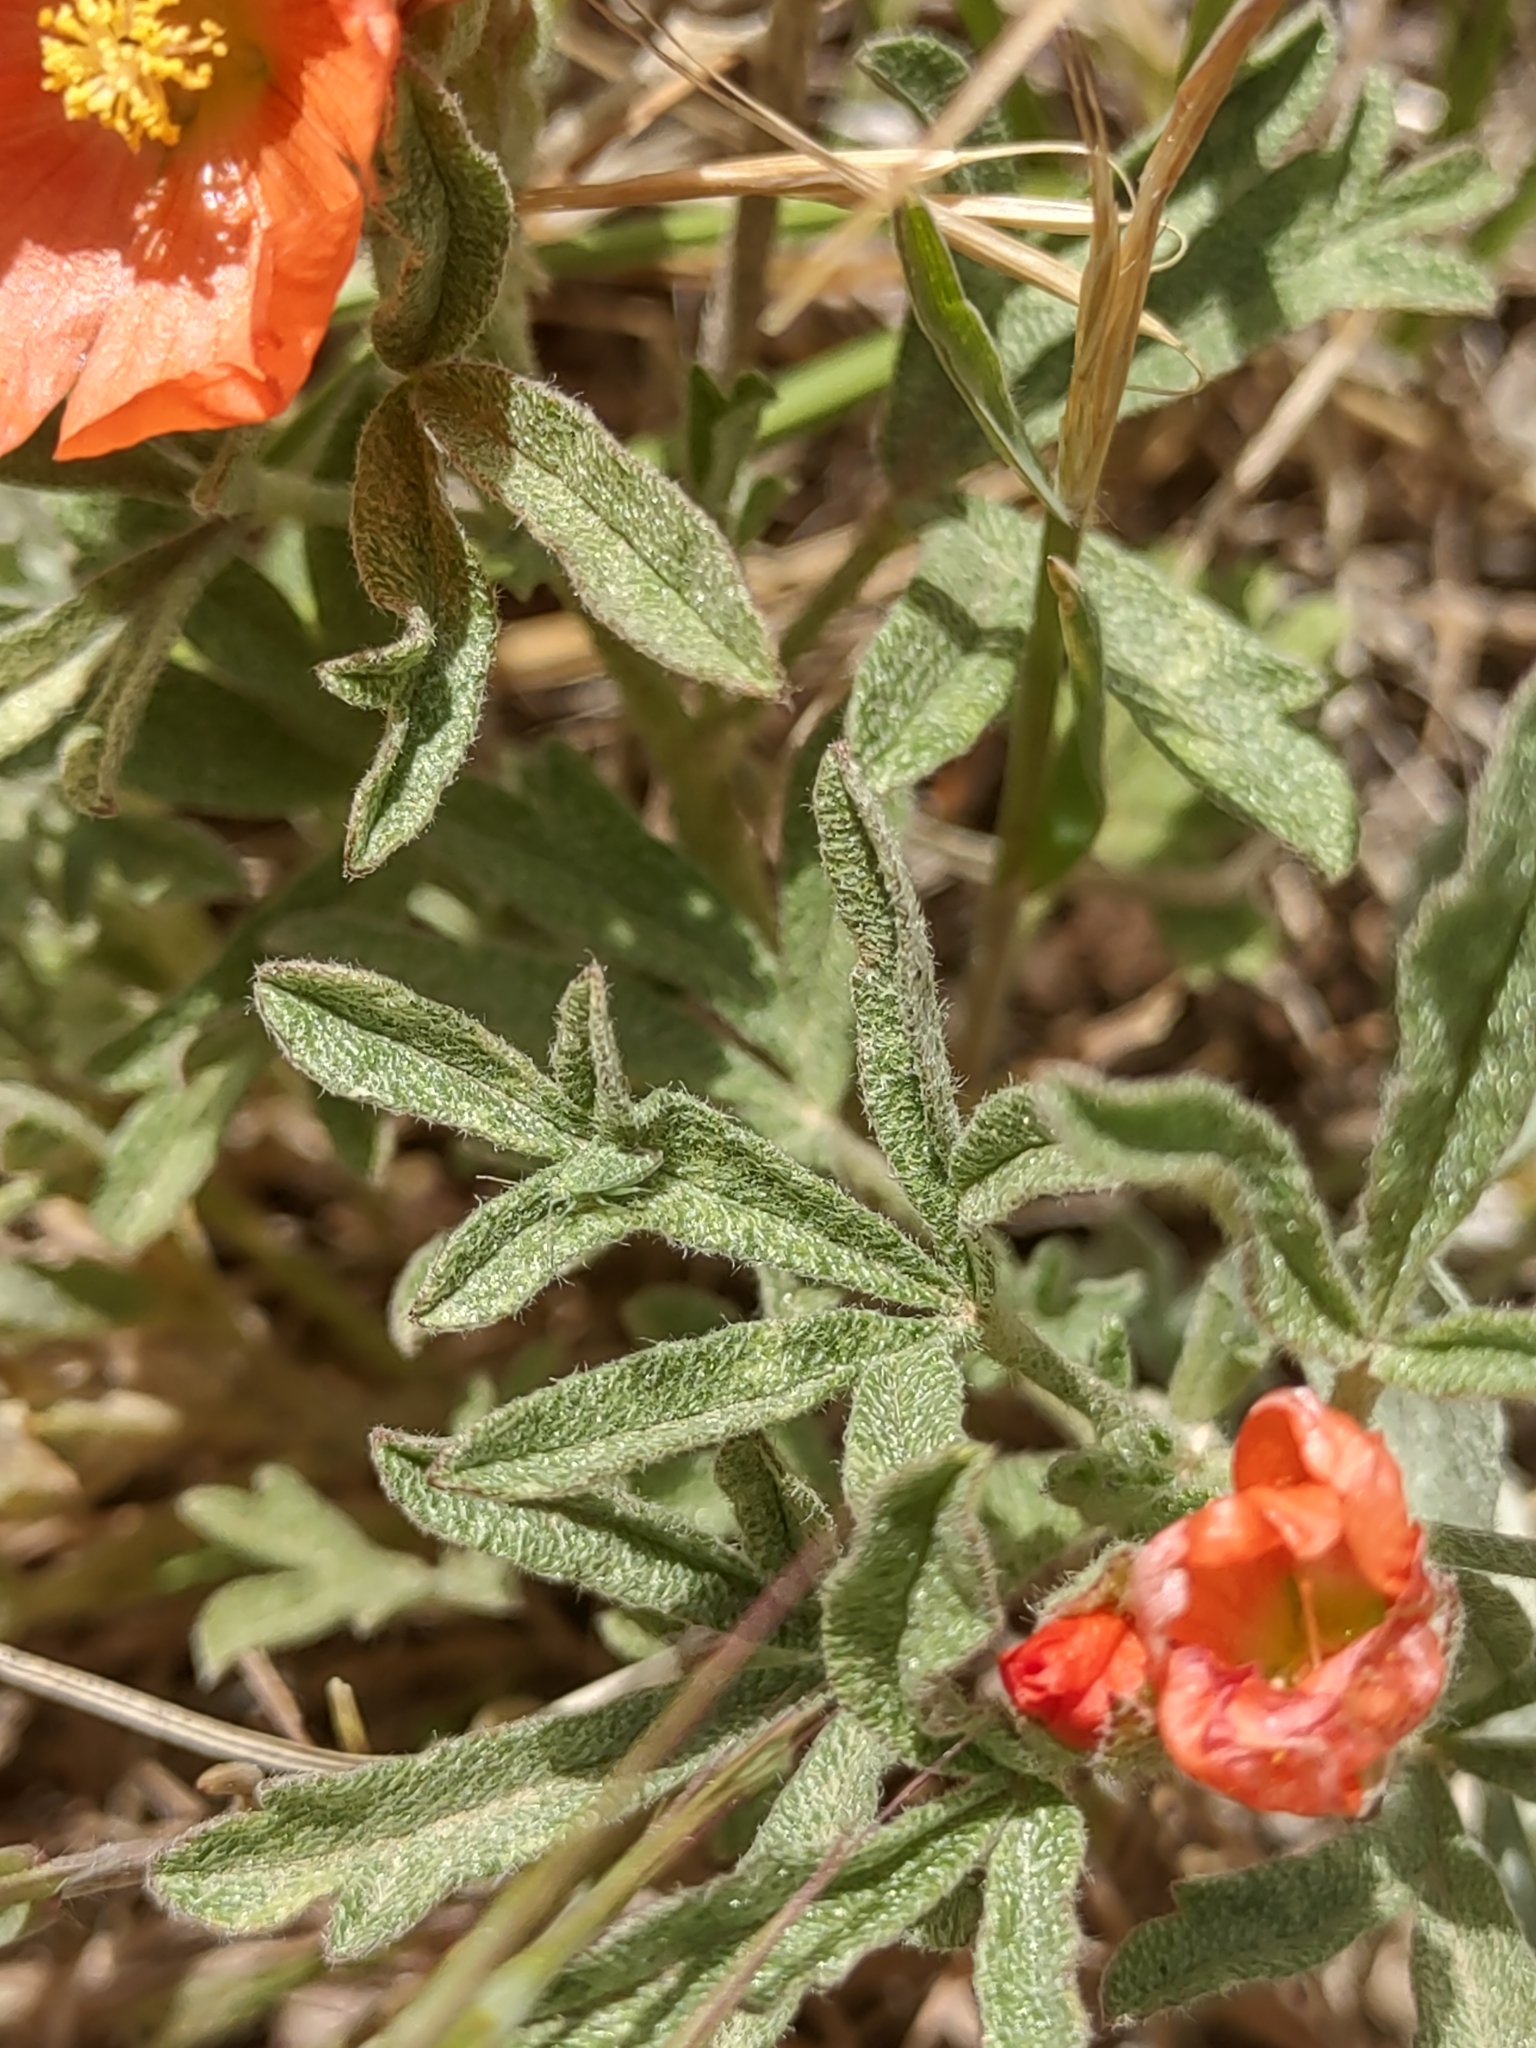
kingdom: Plantae
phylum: Tracheophyta
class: Magnoliopsida
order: Malvales
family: Malvaceae
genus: Sphaeralcea
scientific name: Sphaeralcea coccinea
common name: Moss-rose
